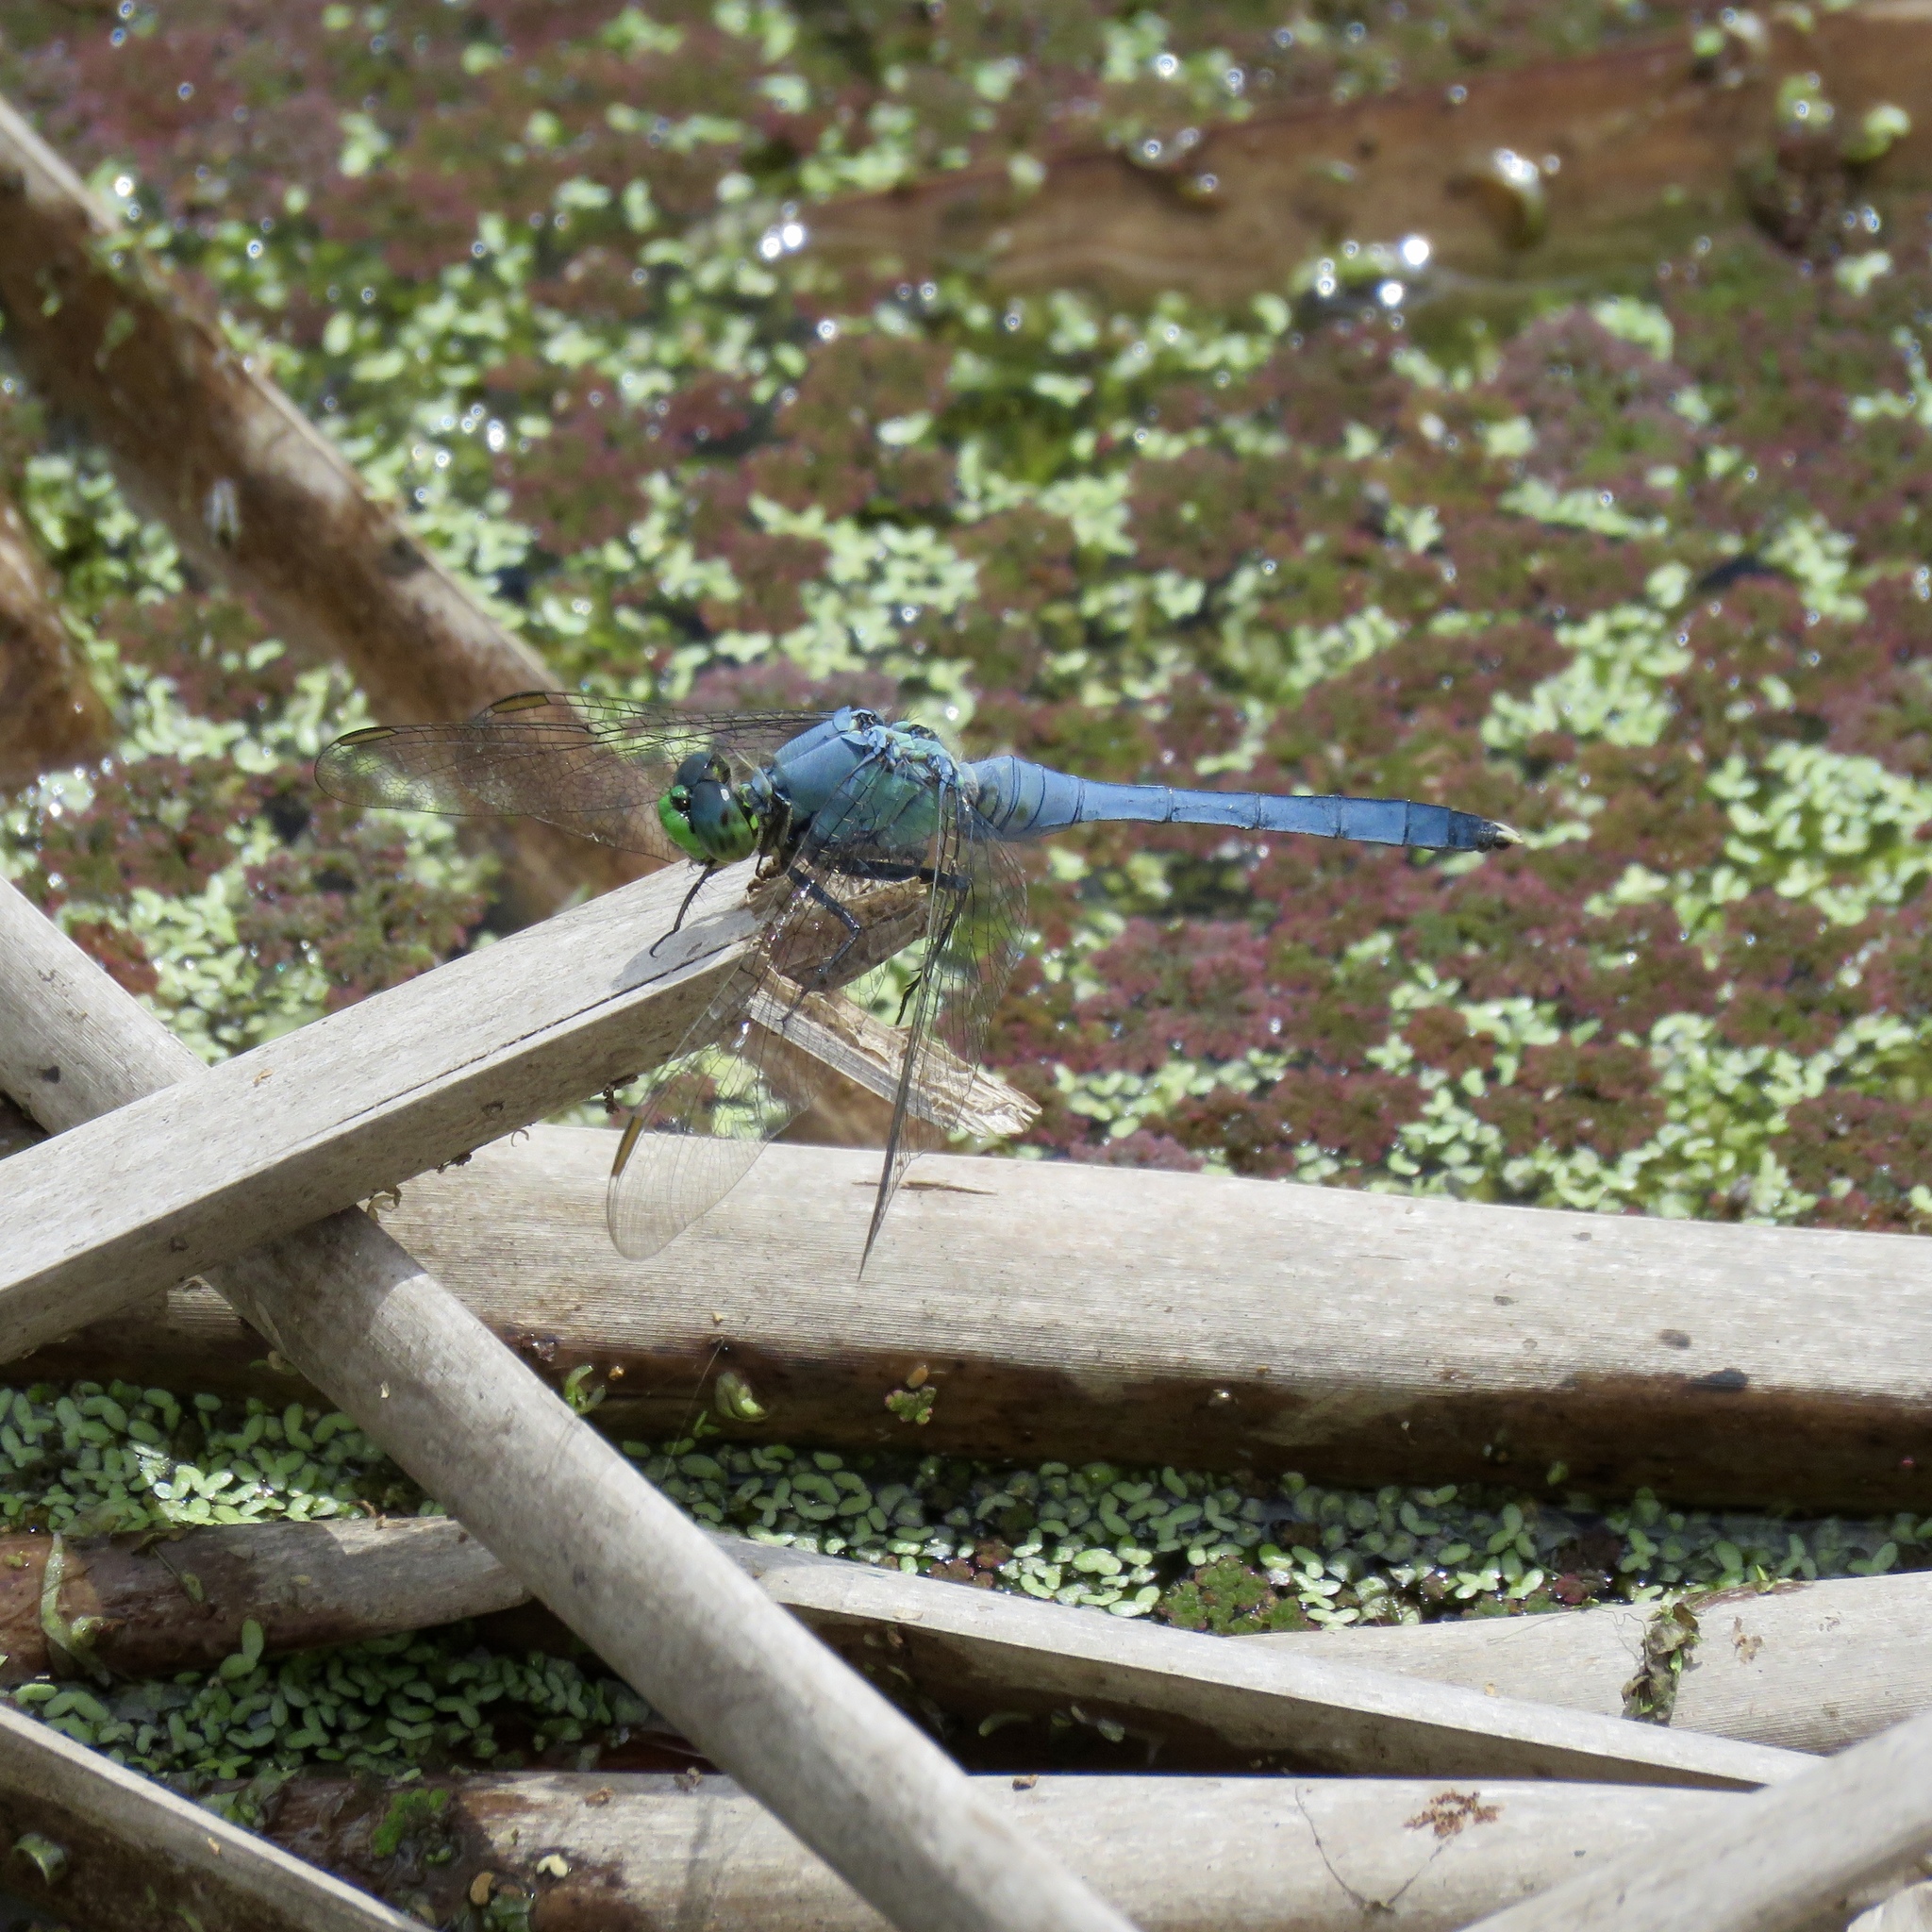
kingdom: Animalia
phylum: Arthropoda
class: Insecta
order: Odonata
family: Libellulidae
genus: Erythemis
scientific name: Erythemis simplicicollis
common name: Eastern pondhawk
